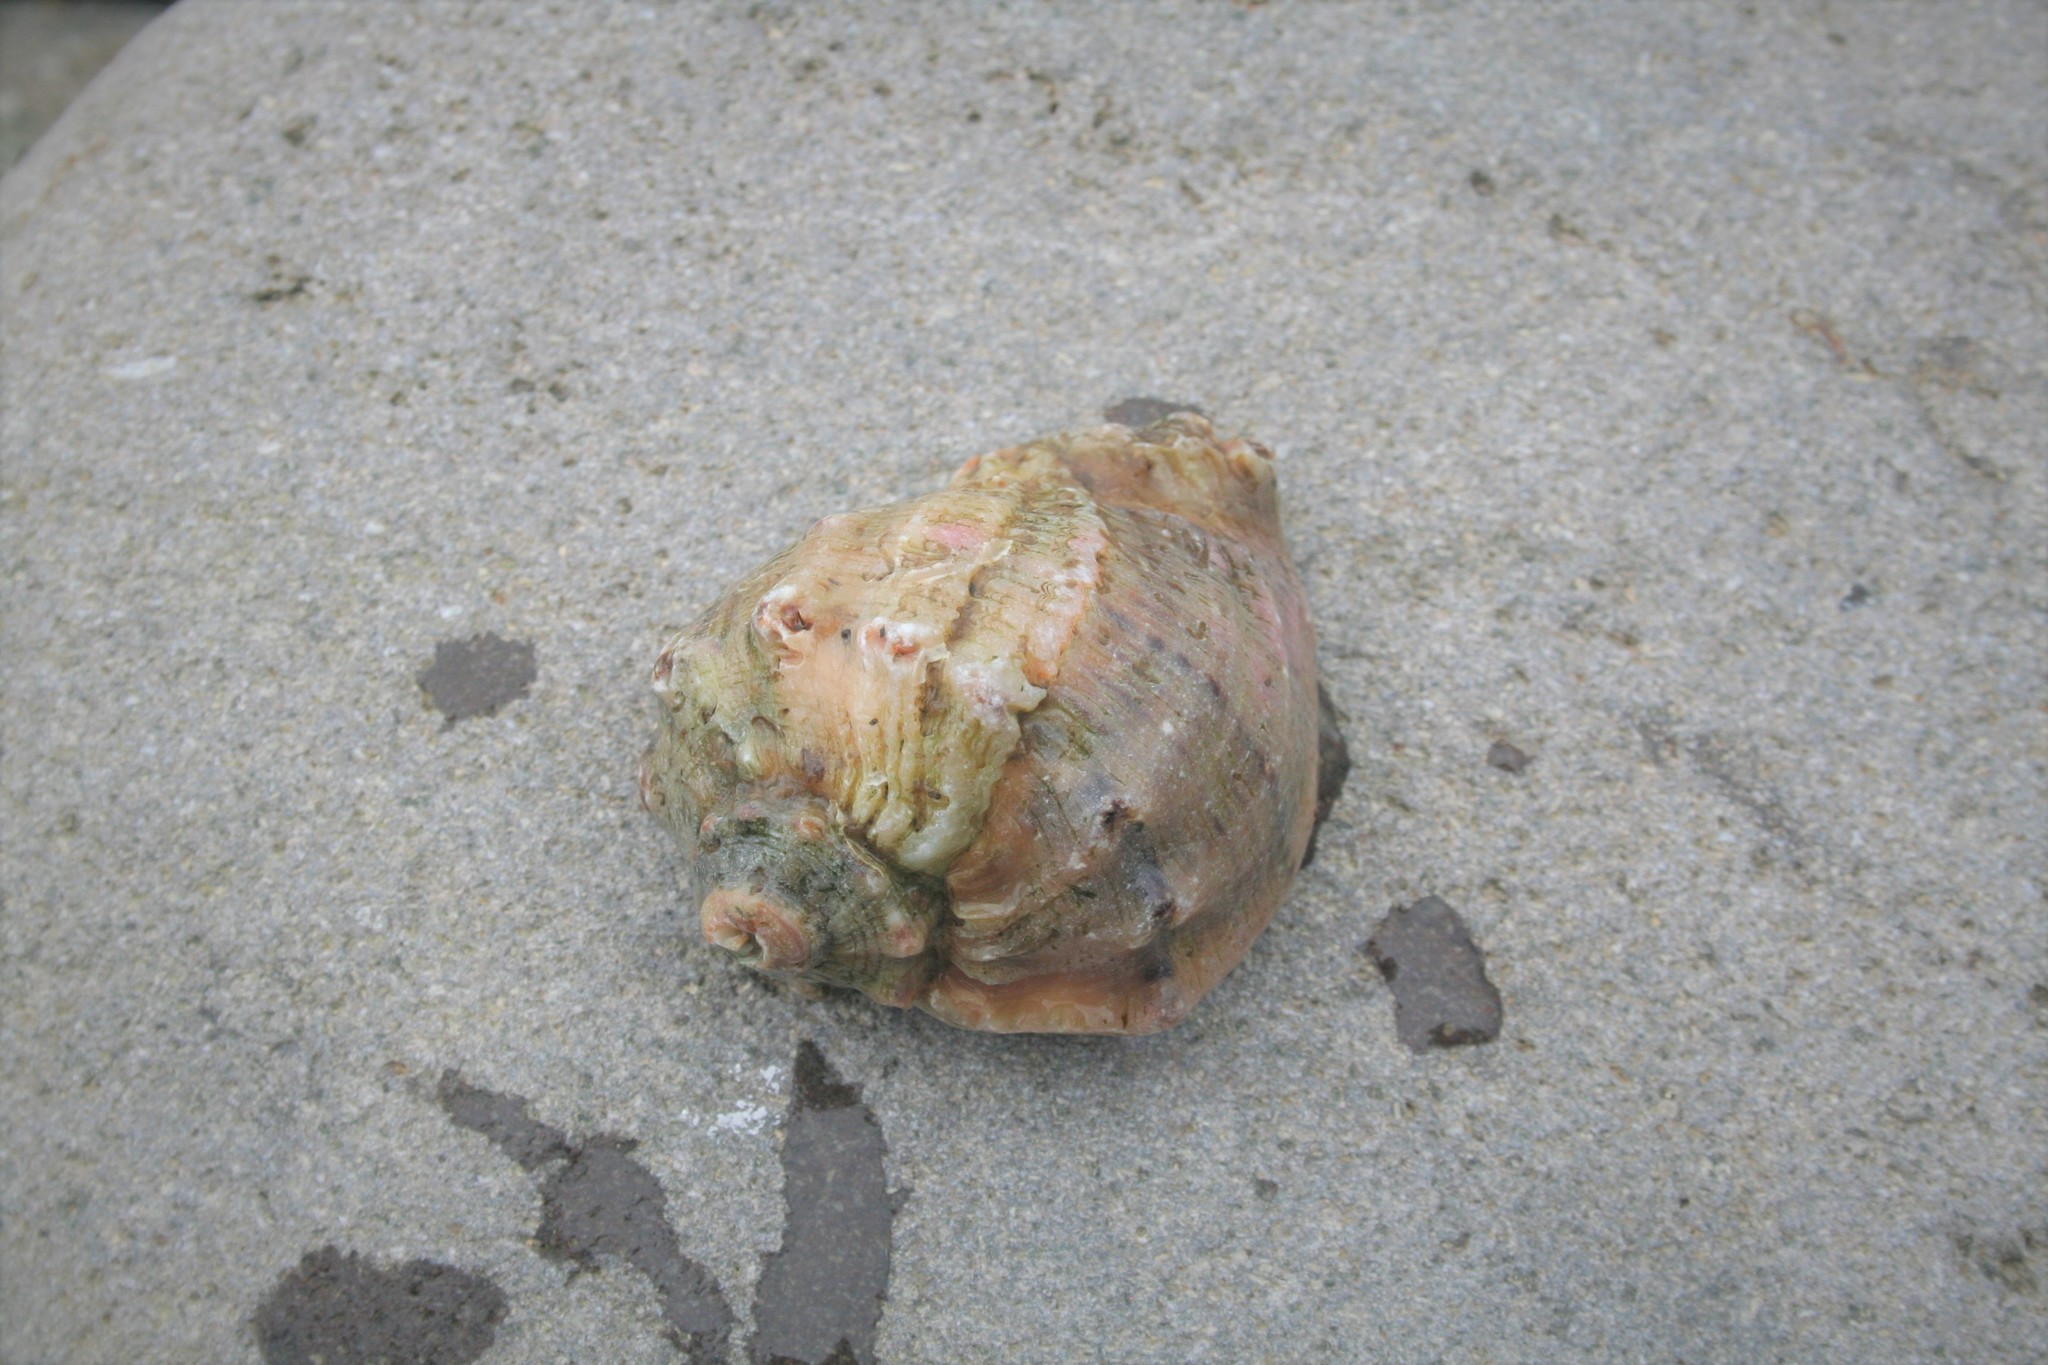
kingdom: Animalia
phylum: Mollusca
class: Gastropoda
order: Neogastropoda
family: Muricidae
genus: Rapana
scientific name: Rapana venosa
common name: Veined rapa whelk
